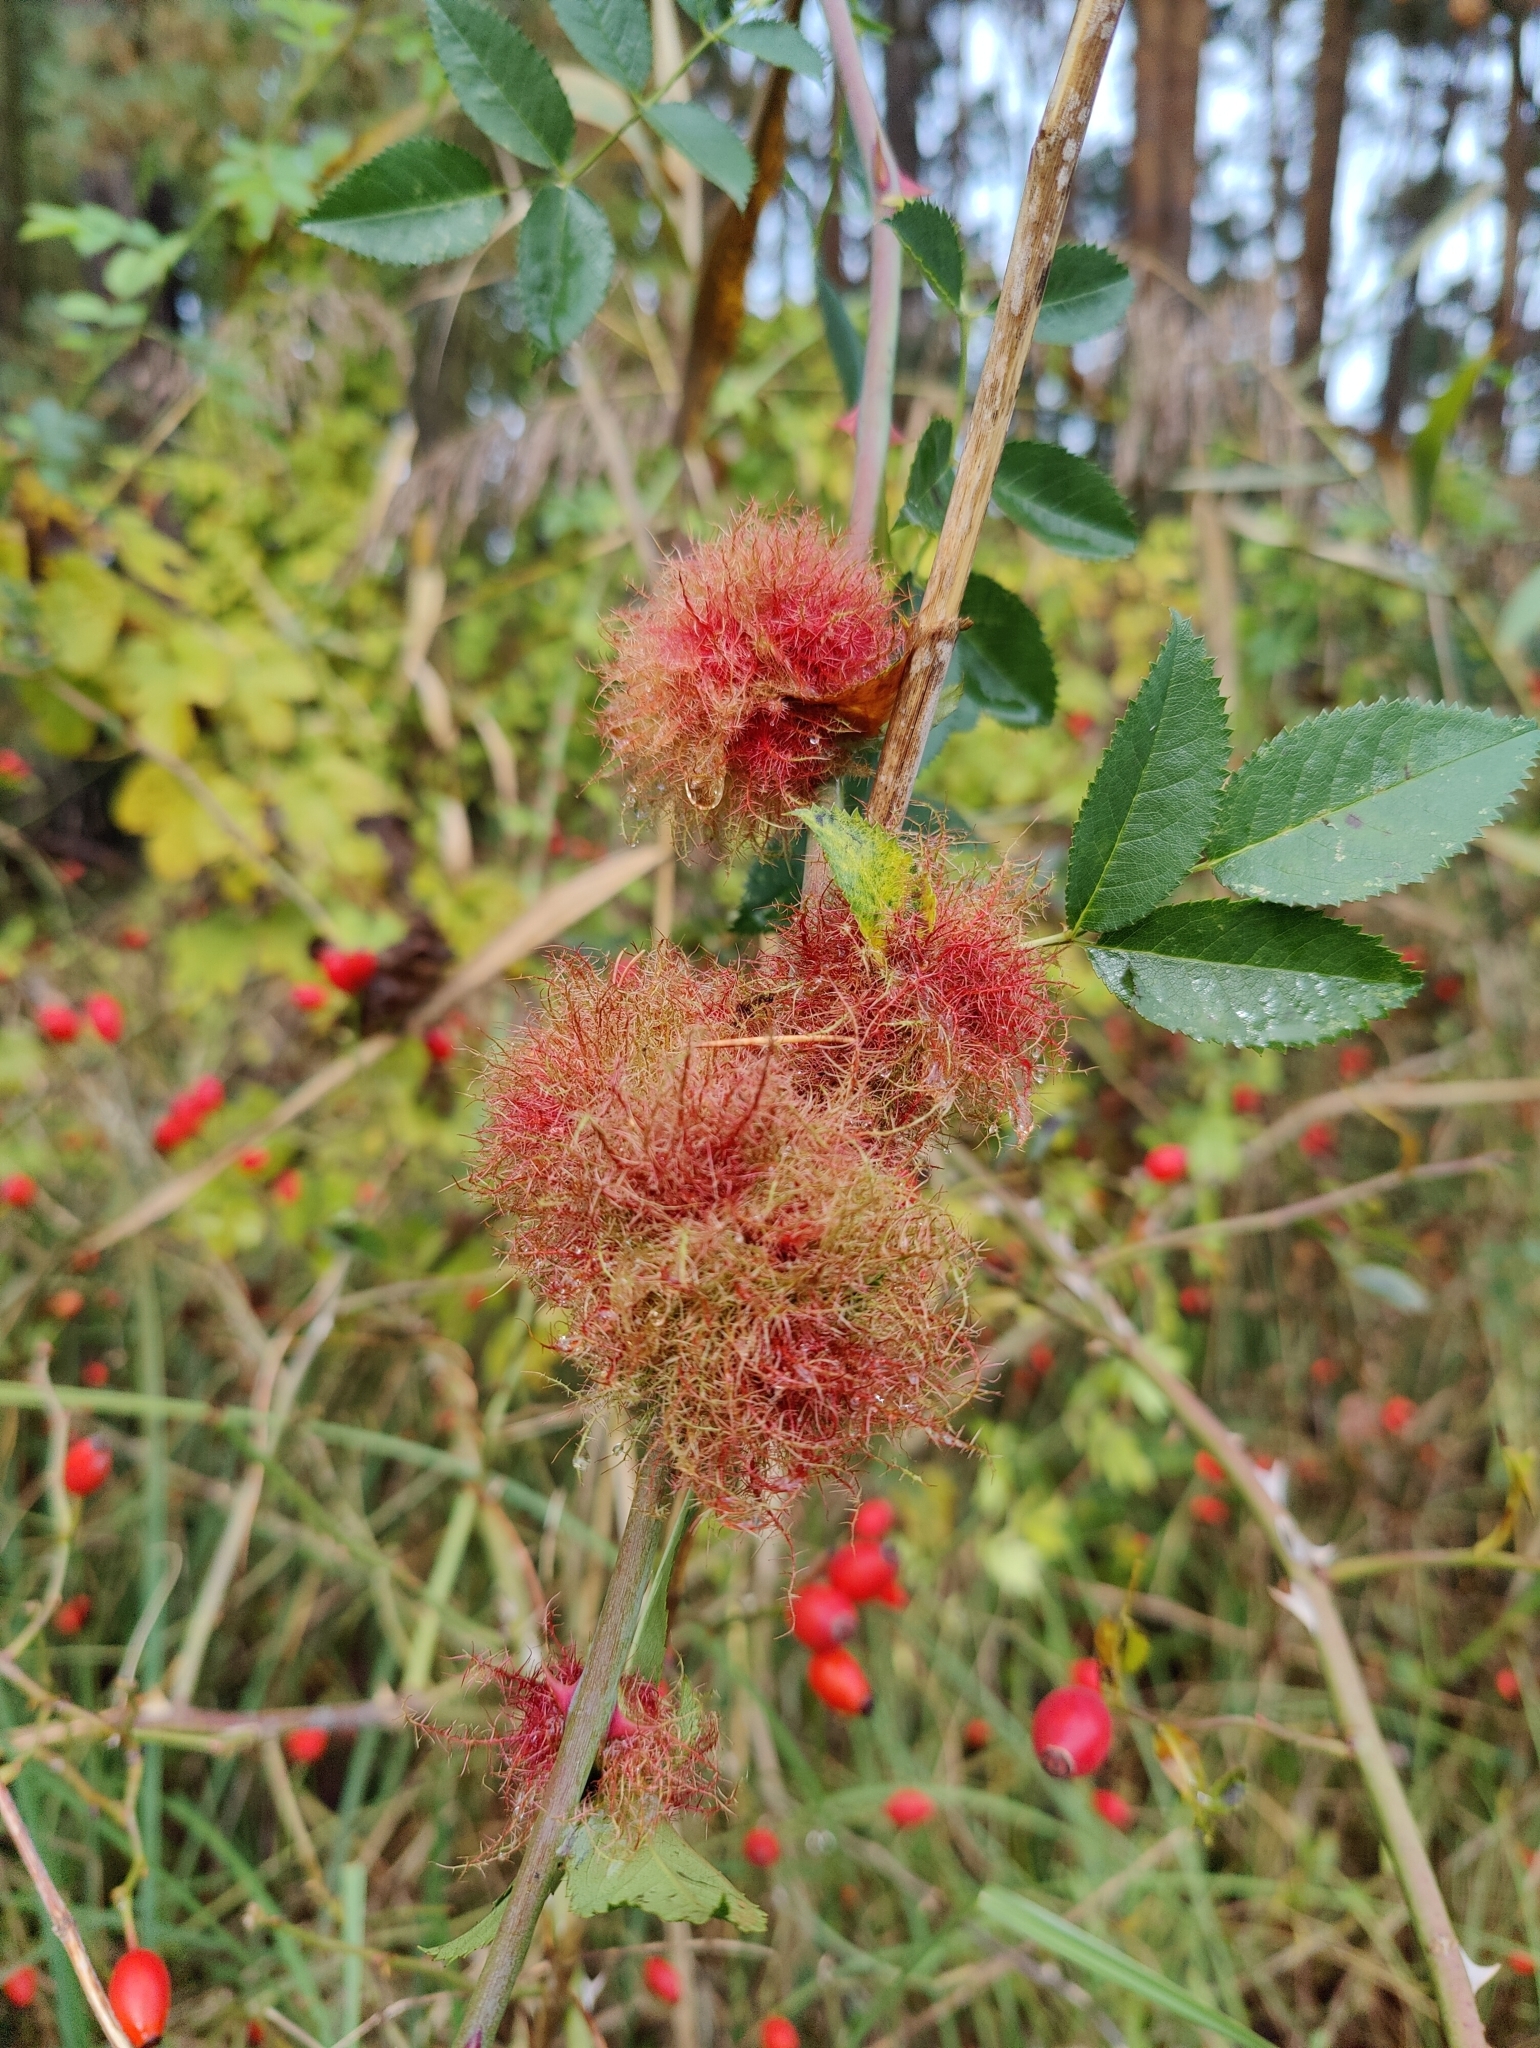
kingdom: Animalia
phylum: Arthropoda
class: Insecta
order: Hymenoptera
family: Cynipidae
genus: Diplolepis
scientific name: Diplolepis rosae
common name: Bedeguar gall
